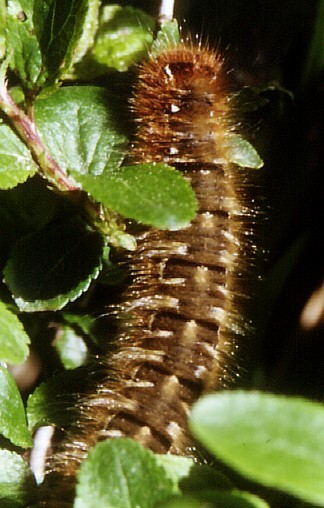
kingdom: Animalia
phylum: Arthropoda
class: Insecta
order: Lepidoptera
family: Lasiocampidae
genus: Lasiocampa
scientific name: Lasiocampa quercus
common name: Oak eggar
